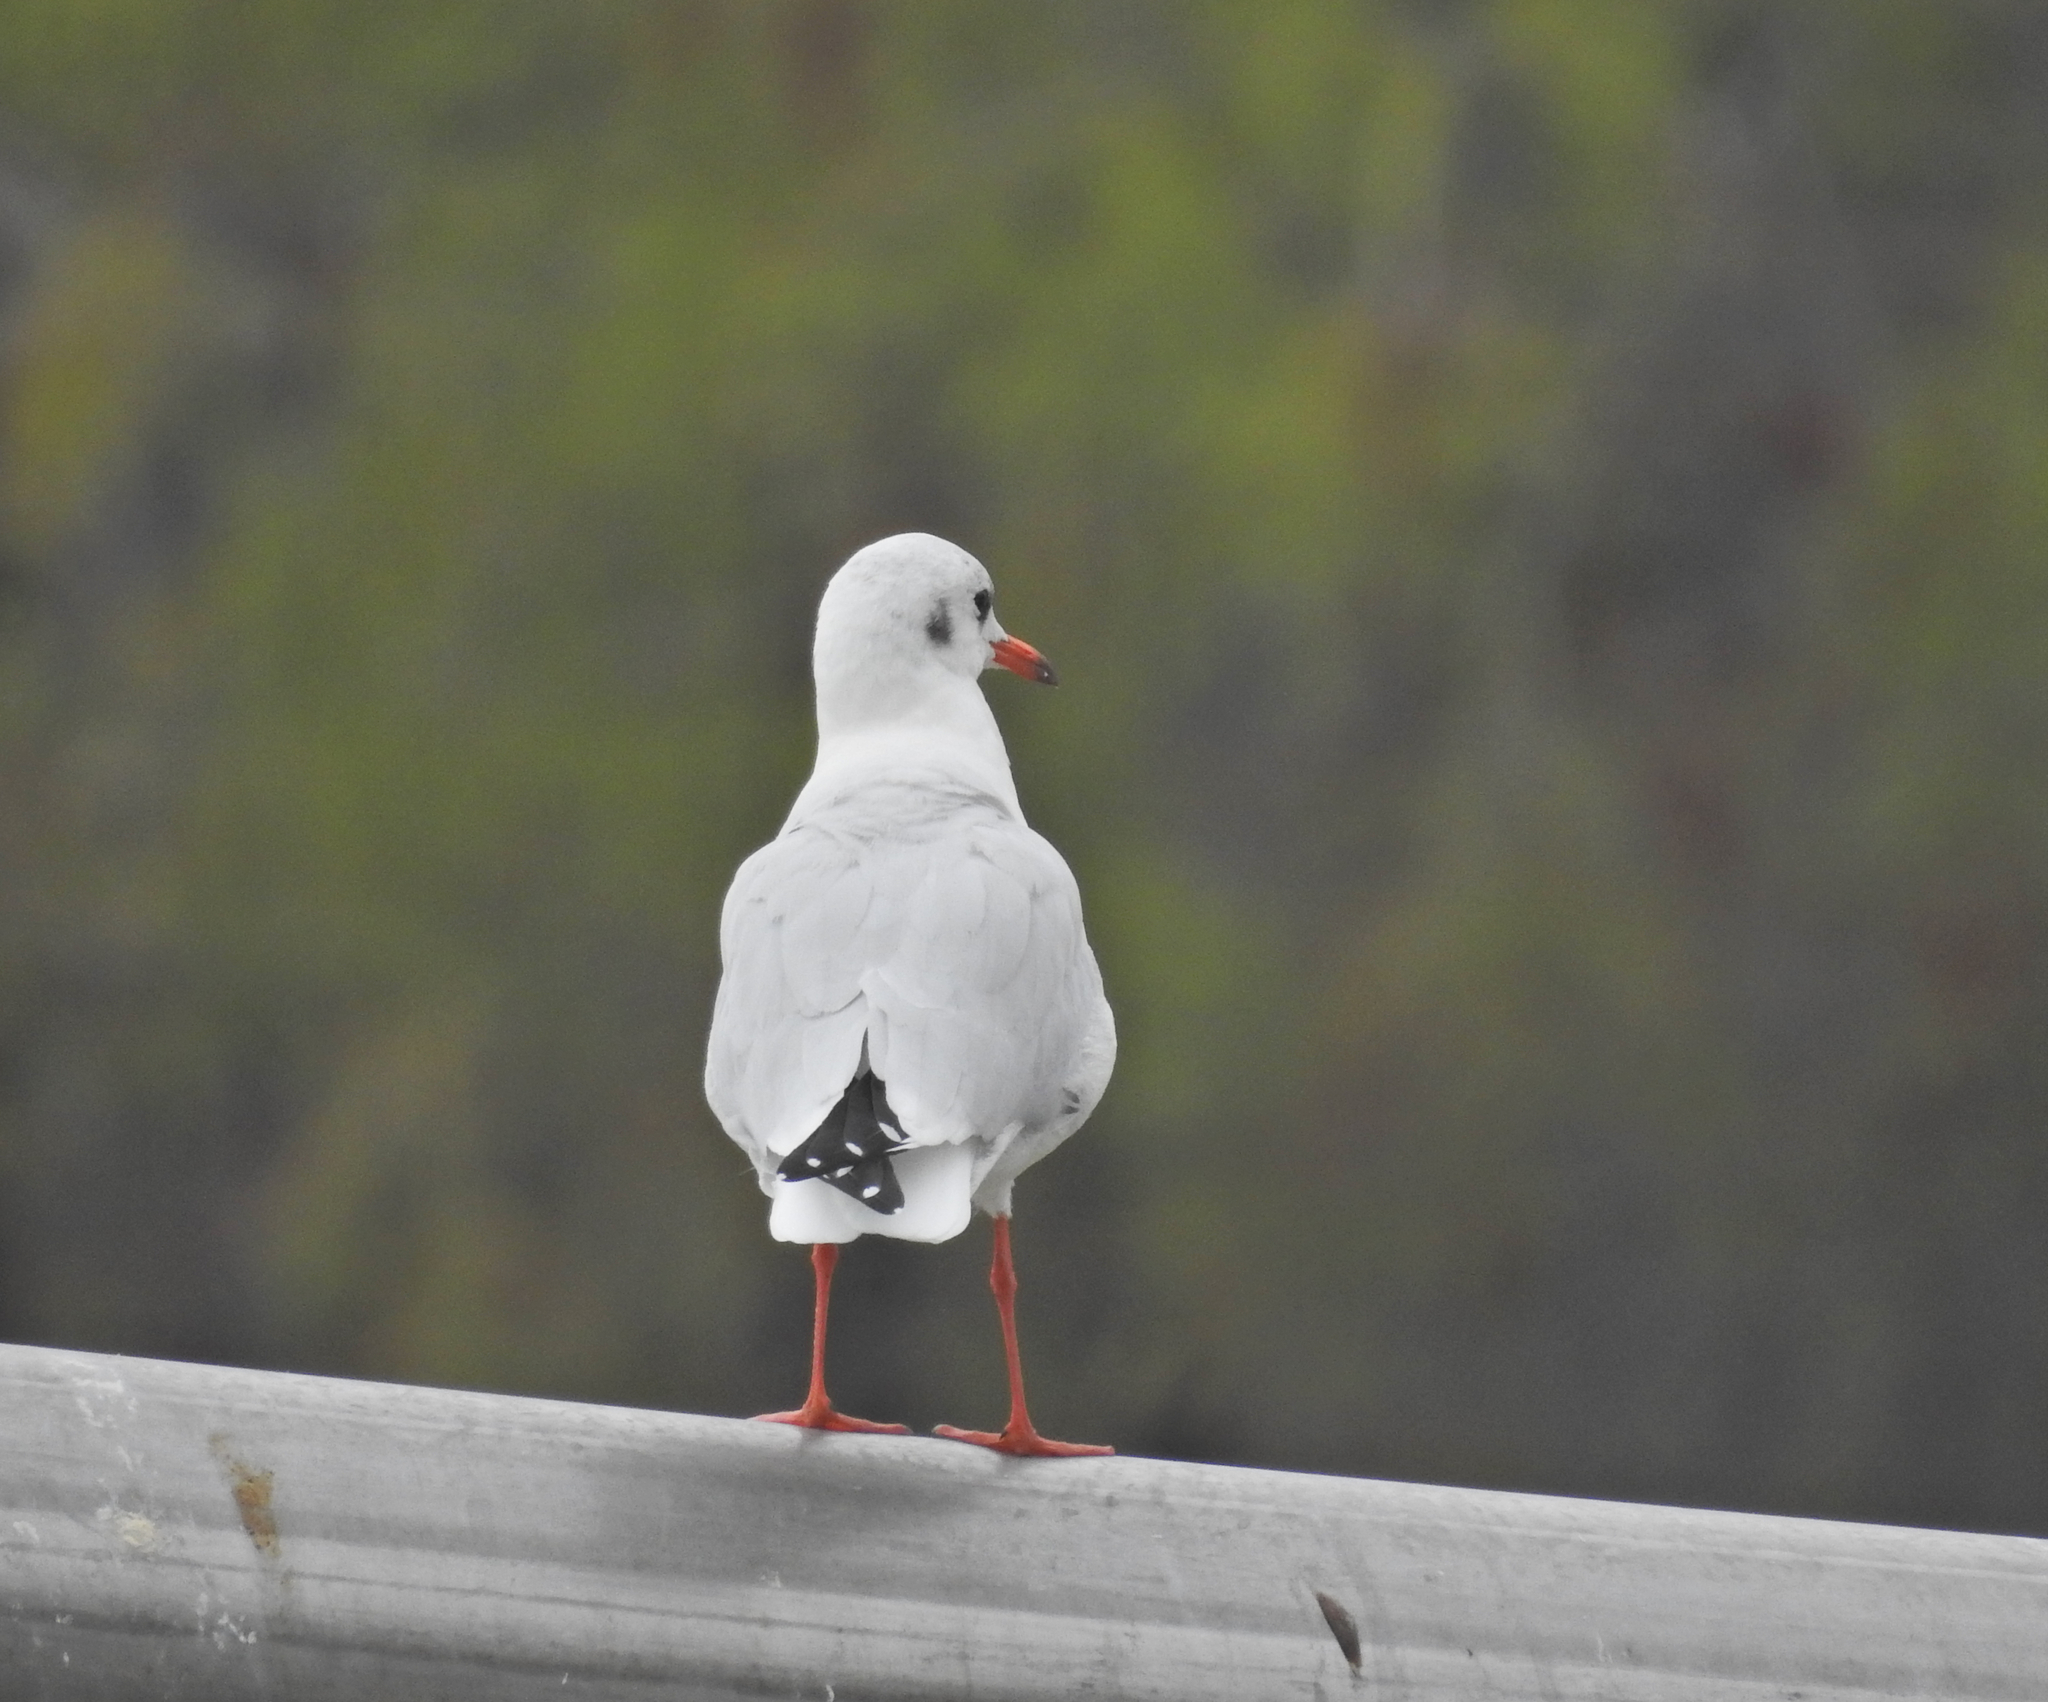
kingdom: Animalia
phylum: Chordata
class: Aves
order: Charadriiformes
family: Laridae
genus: Chroicocephalus
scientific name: Chroicocephalus ridibundus
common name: Black-headed gull
